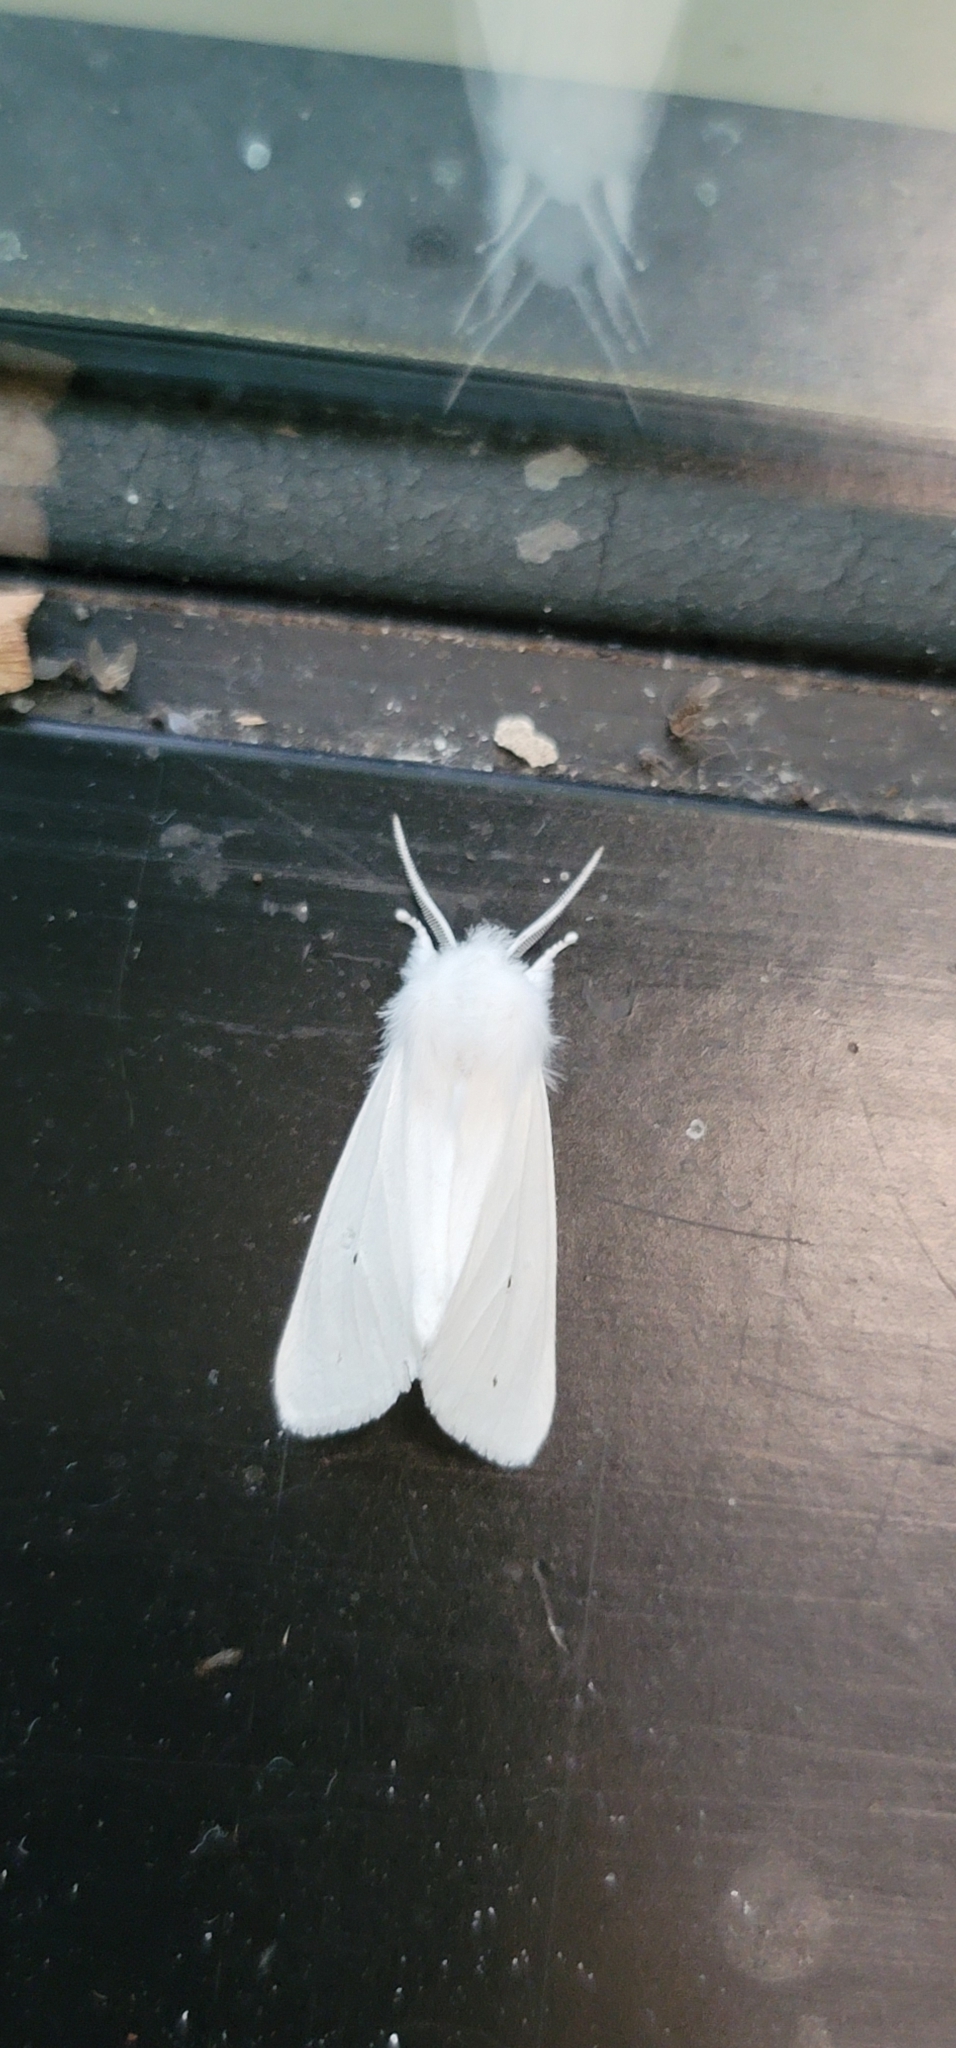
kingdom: Animalia
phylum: Arthropoda
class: Insecta
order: Lepidoptera
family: Erebidae
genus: Spilosoma
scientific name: Spilosoma virginica
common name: Virginia tiger moth
